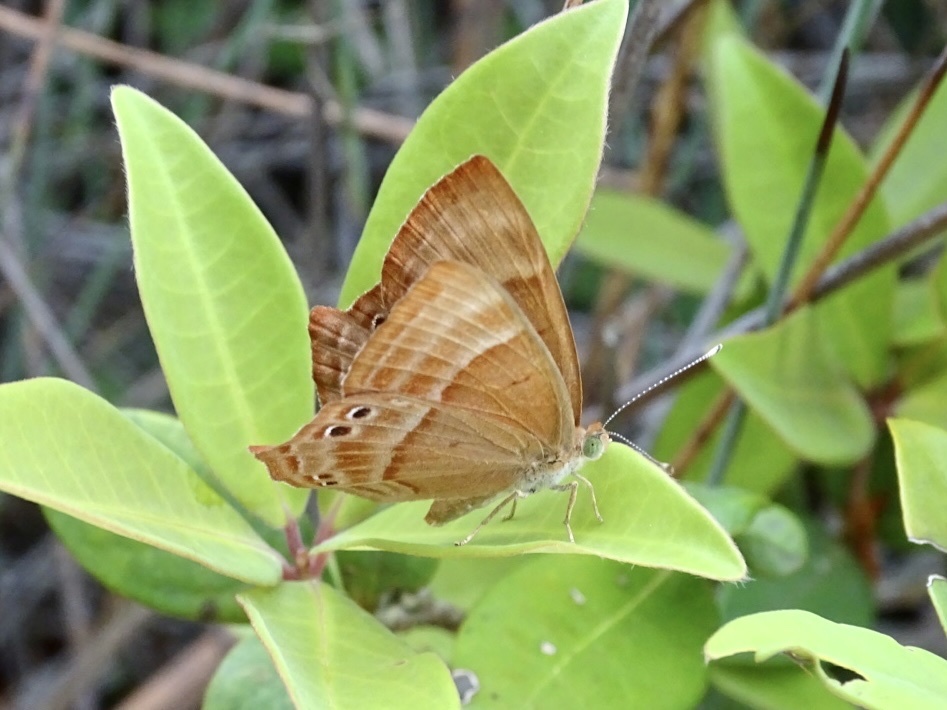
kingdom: Animalia
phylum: Arthropoda
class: Insecta
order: Lepidoptera
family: Lycaenidae
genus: Abisara
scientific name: Abisara echeria
